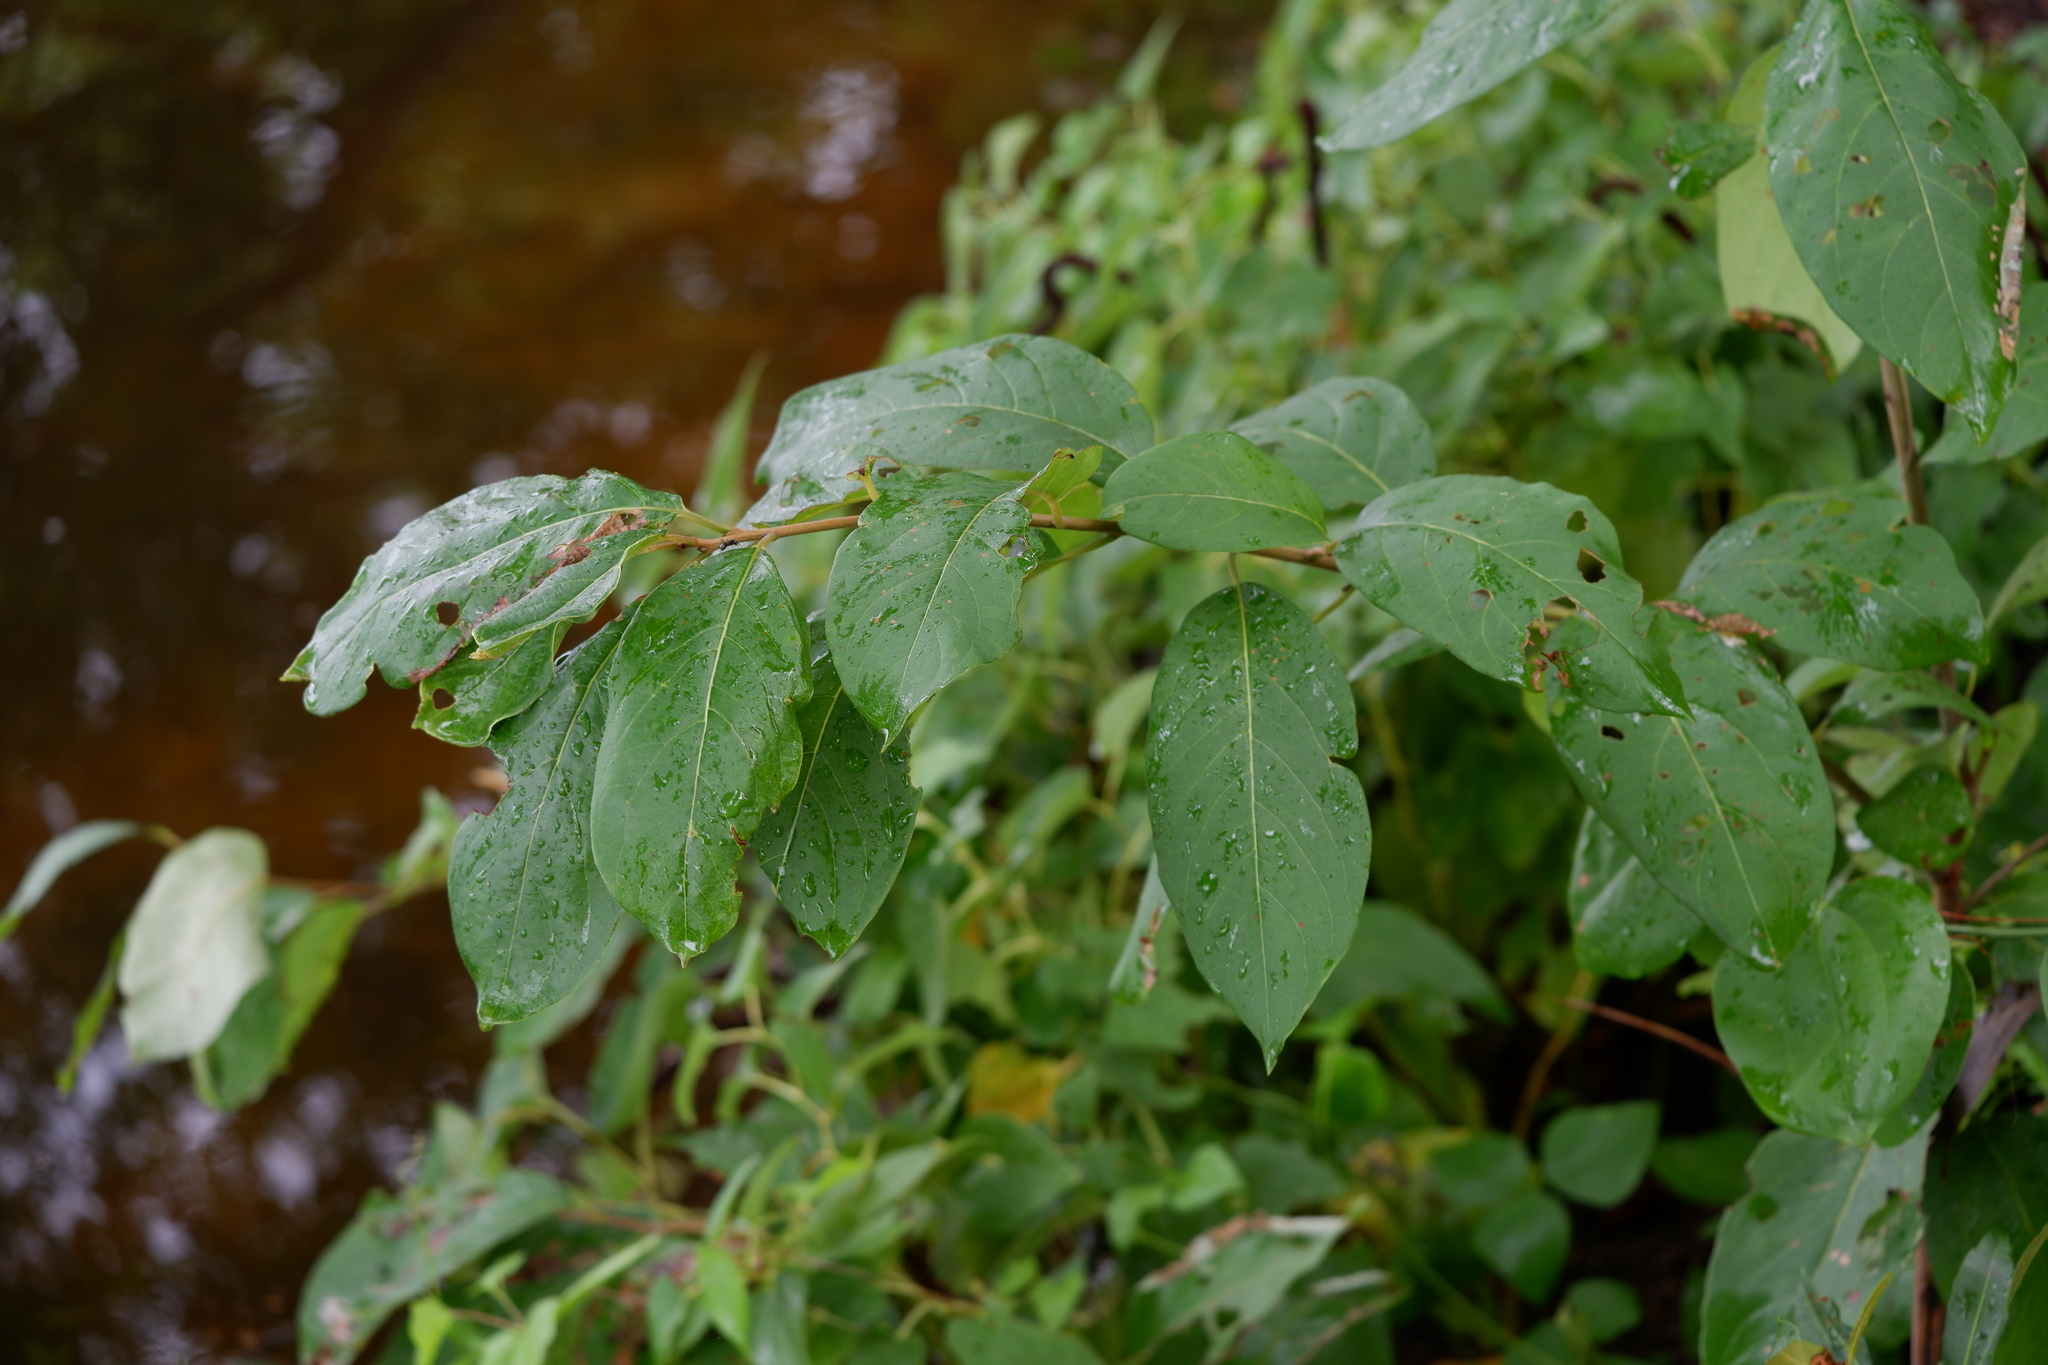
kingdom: Plantae
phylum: Tracheophyta
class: Magnoliopsida
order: Ericales
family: Ebenaceae
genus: Diospyros
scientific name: Diospyros virginiana
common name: Persimmon
